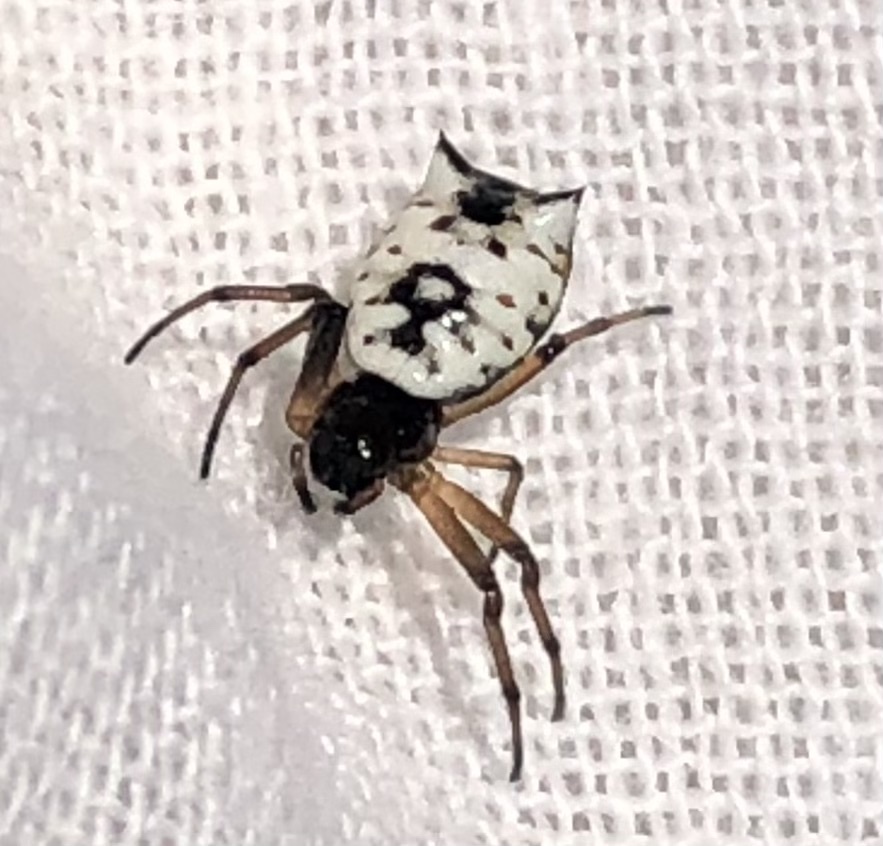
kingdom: Animalia
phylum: Arthropoda
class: Arachnida
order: Araneae
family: Araneidae
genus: Micrathena
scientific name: Micrathena mitrata
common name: Orb weavers
